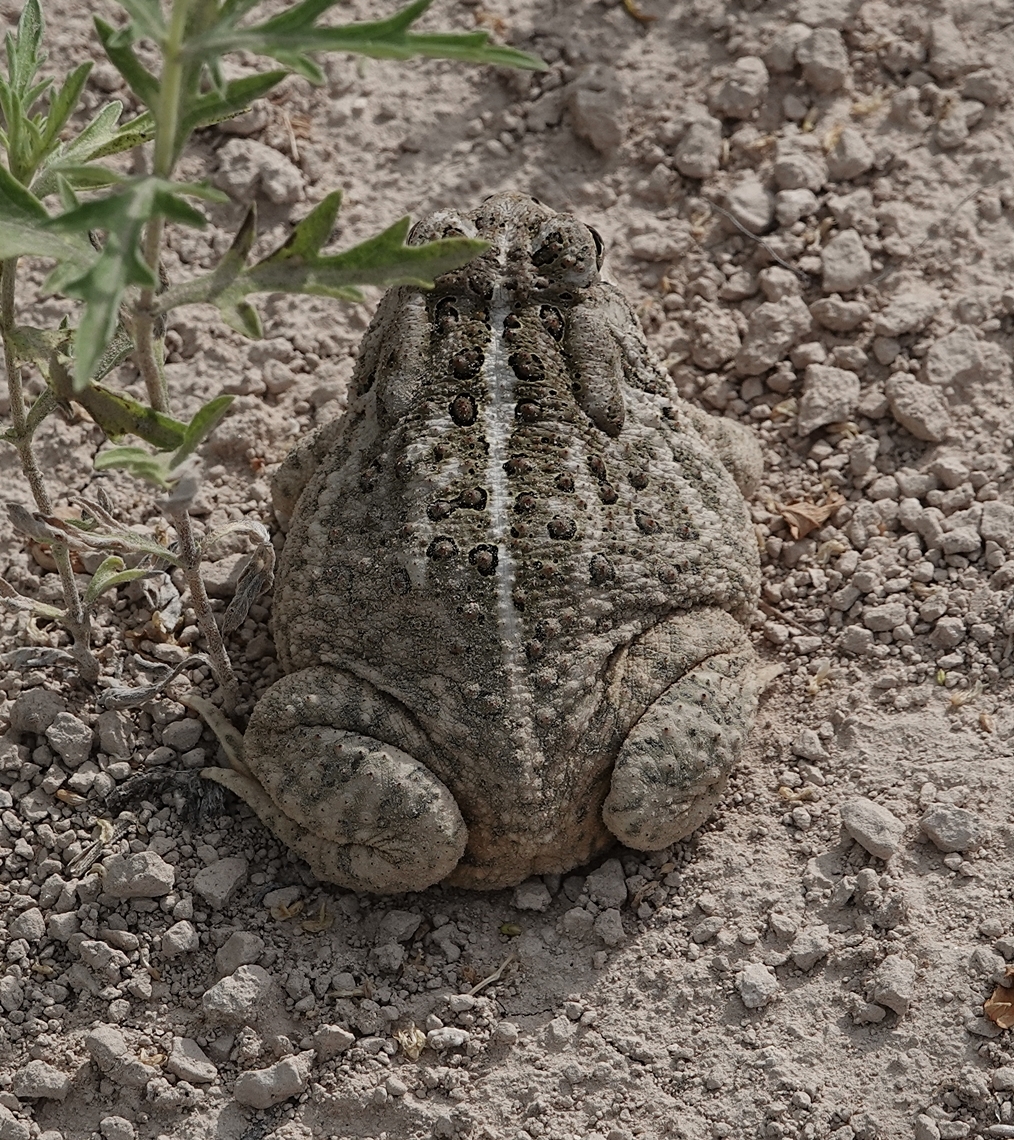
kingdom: Animalia
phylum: Chordata
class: Amphibia
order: Anura
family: Bufonidae
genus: Anaxyrus
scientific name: Anaxyrus woodhousii
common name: Woodhouse's toad
